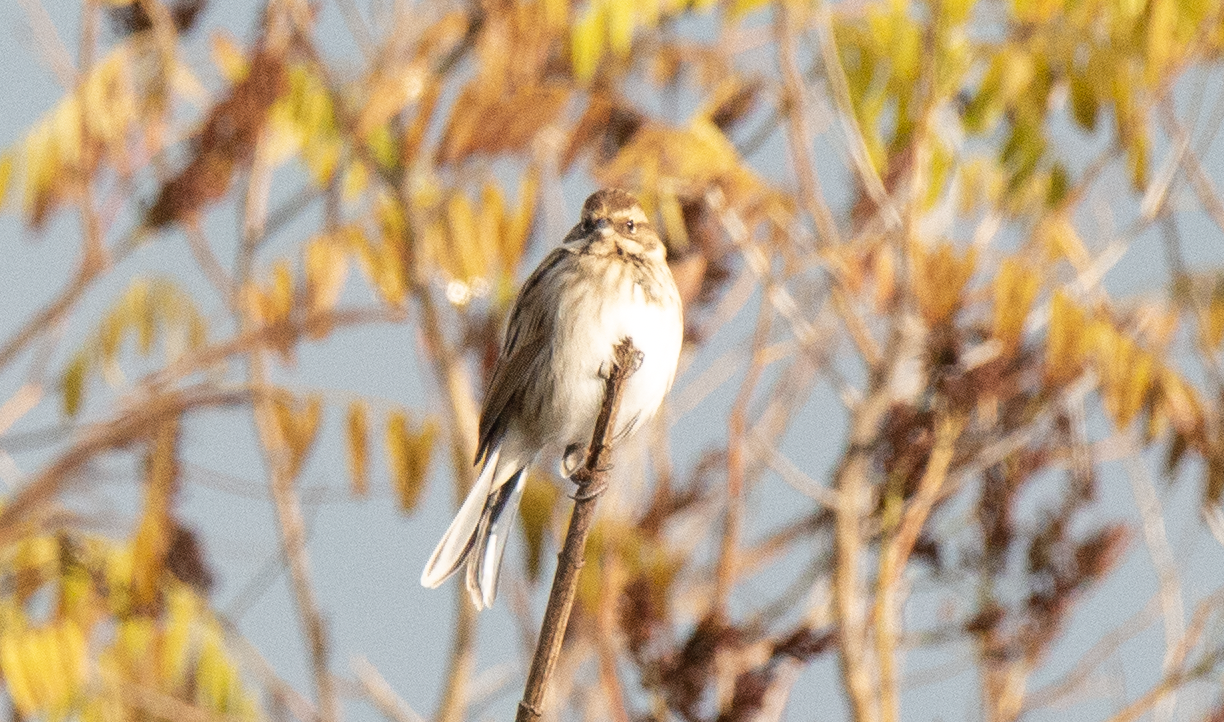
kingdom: Animalia
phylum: Chordata
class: Aves
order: Passeriformes
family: Emberizidae
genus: Emberiza
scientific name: Emberiza schoeniclus
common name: Reed bunting
